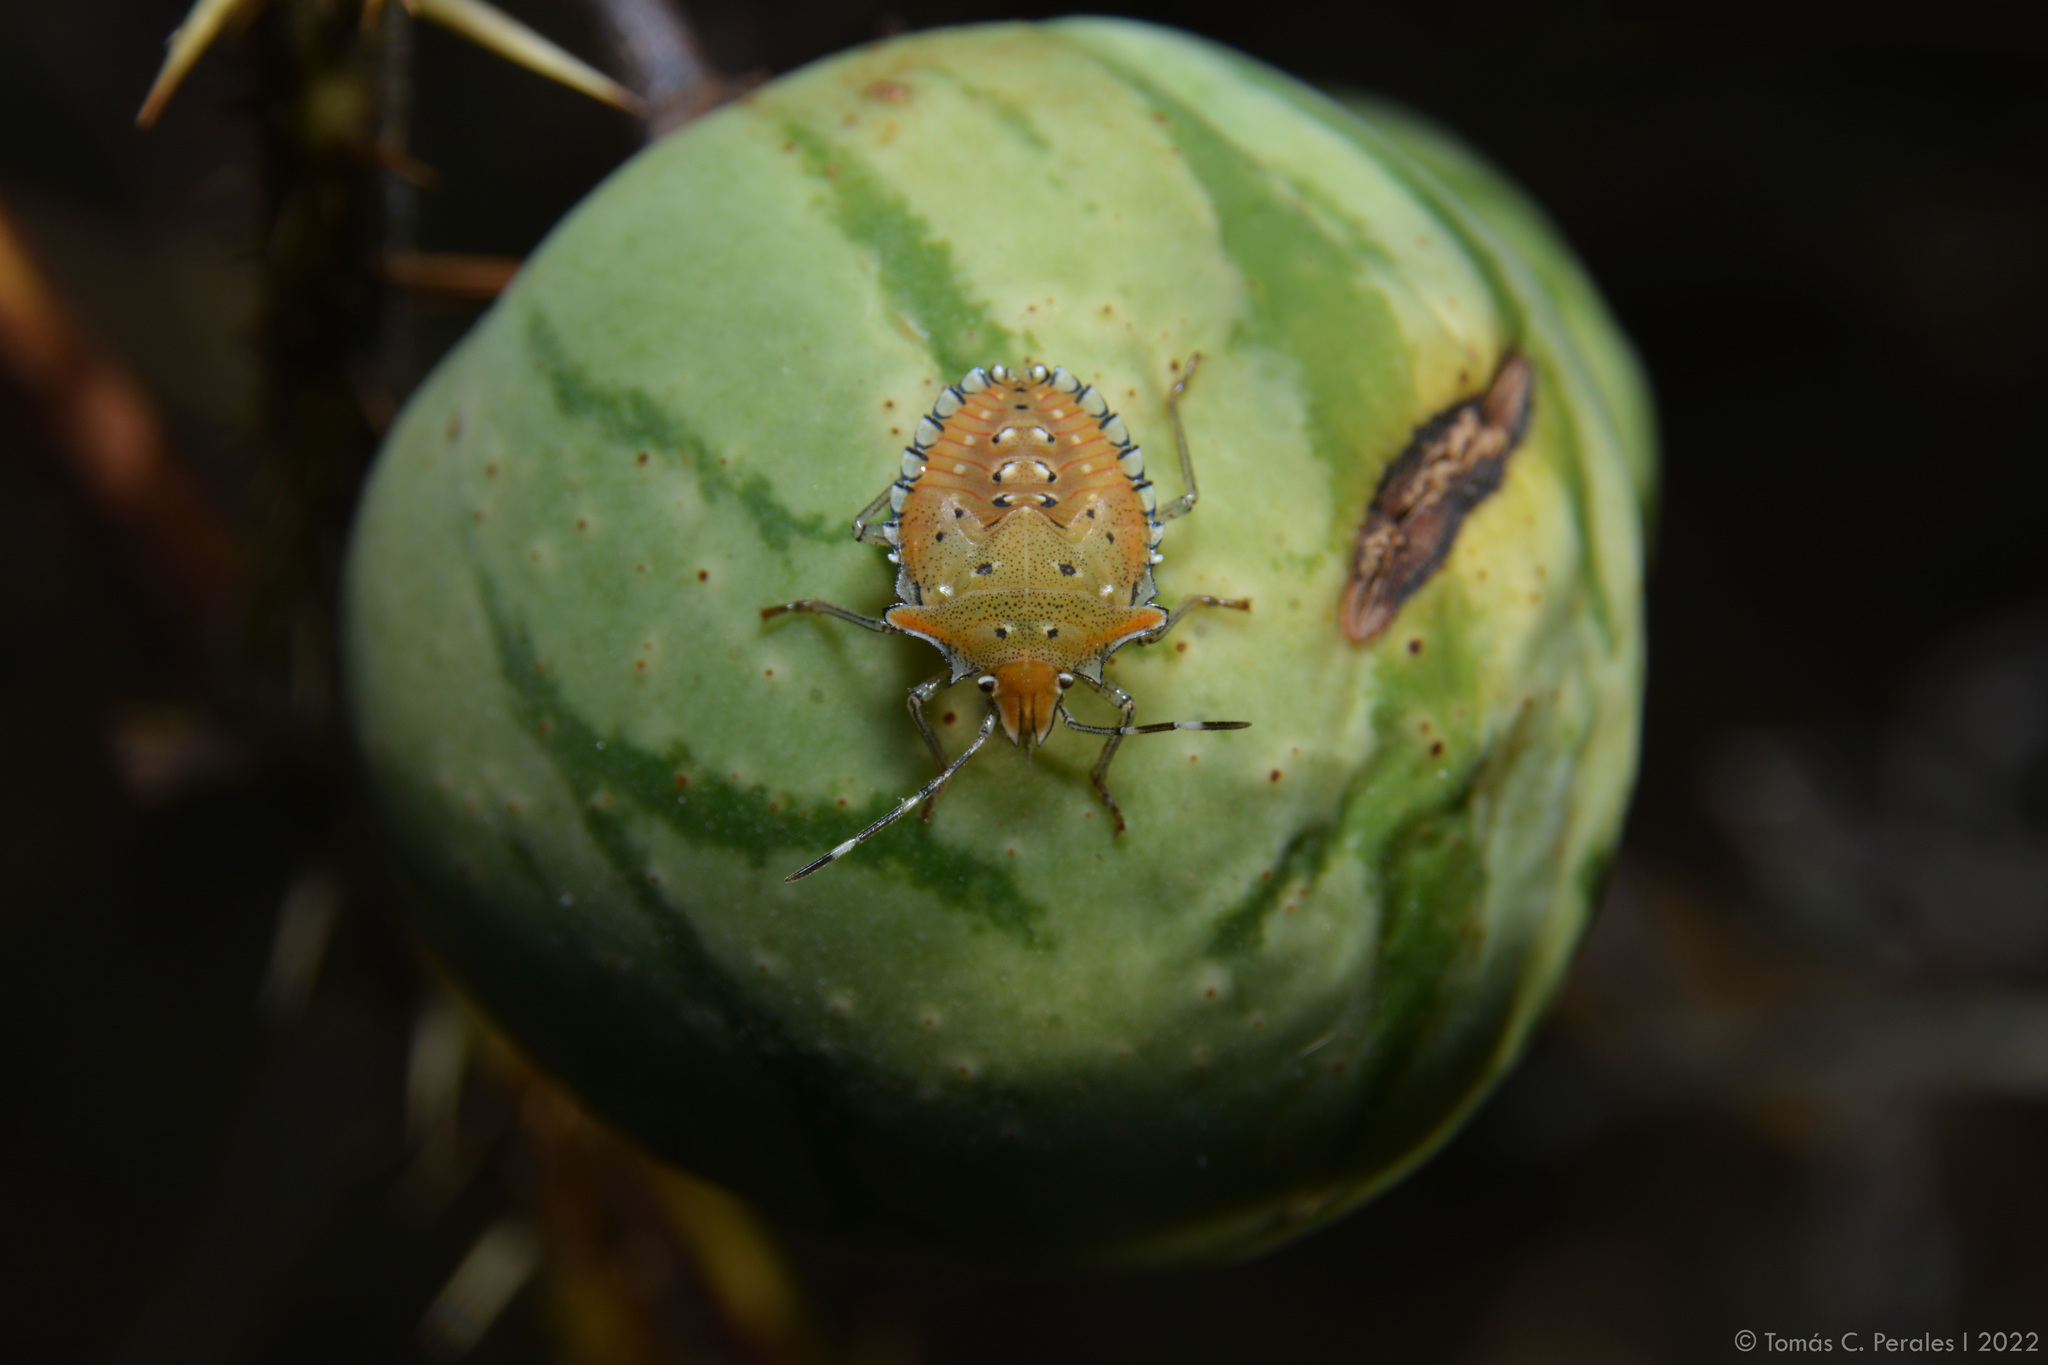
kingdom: Animalia
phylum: Arthropoda
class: Insecta
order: Hemiptera
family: Pentatomidae
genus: Arvelius
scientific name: Arvelius albopunctatus
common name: Tomato stink bug
